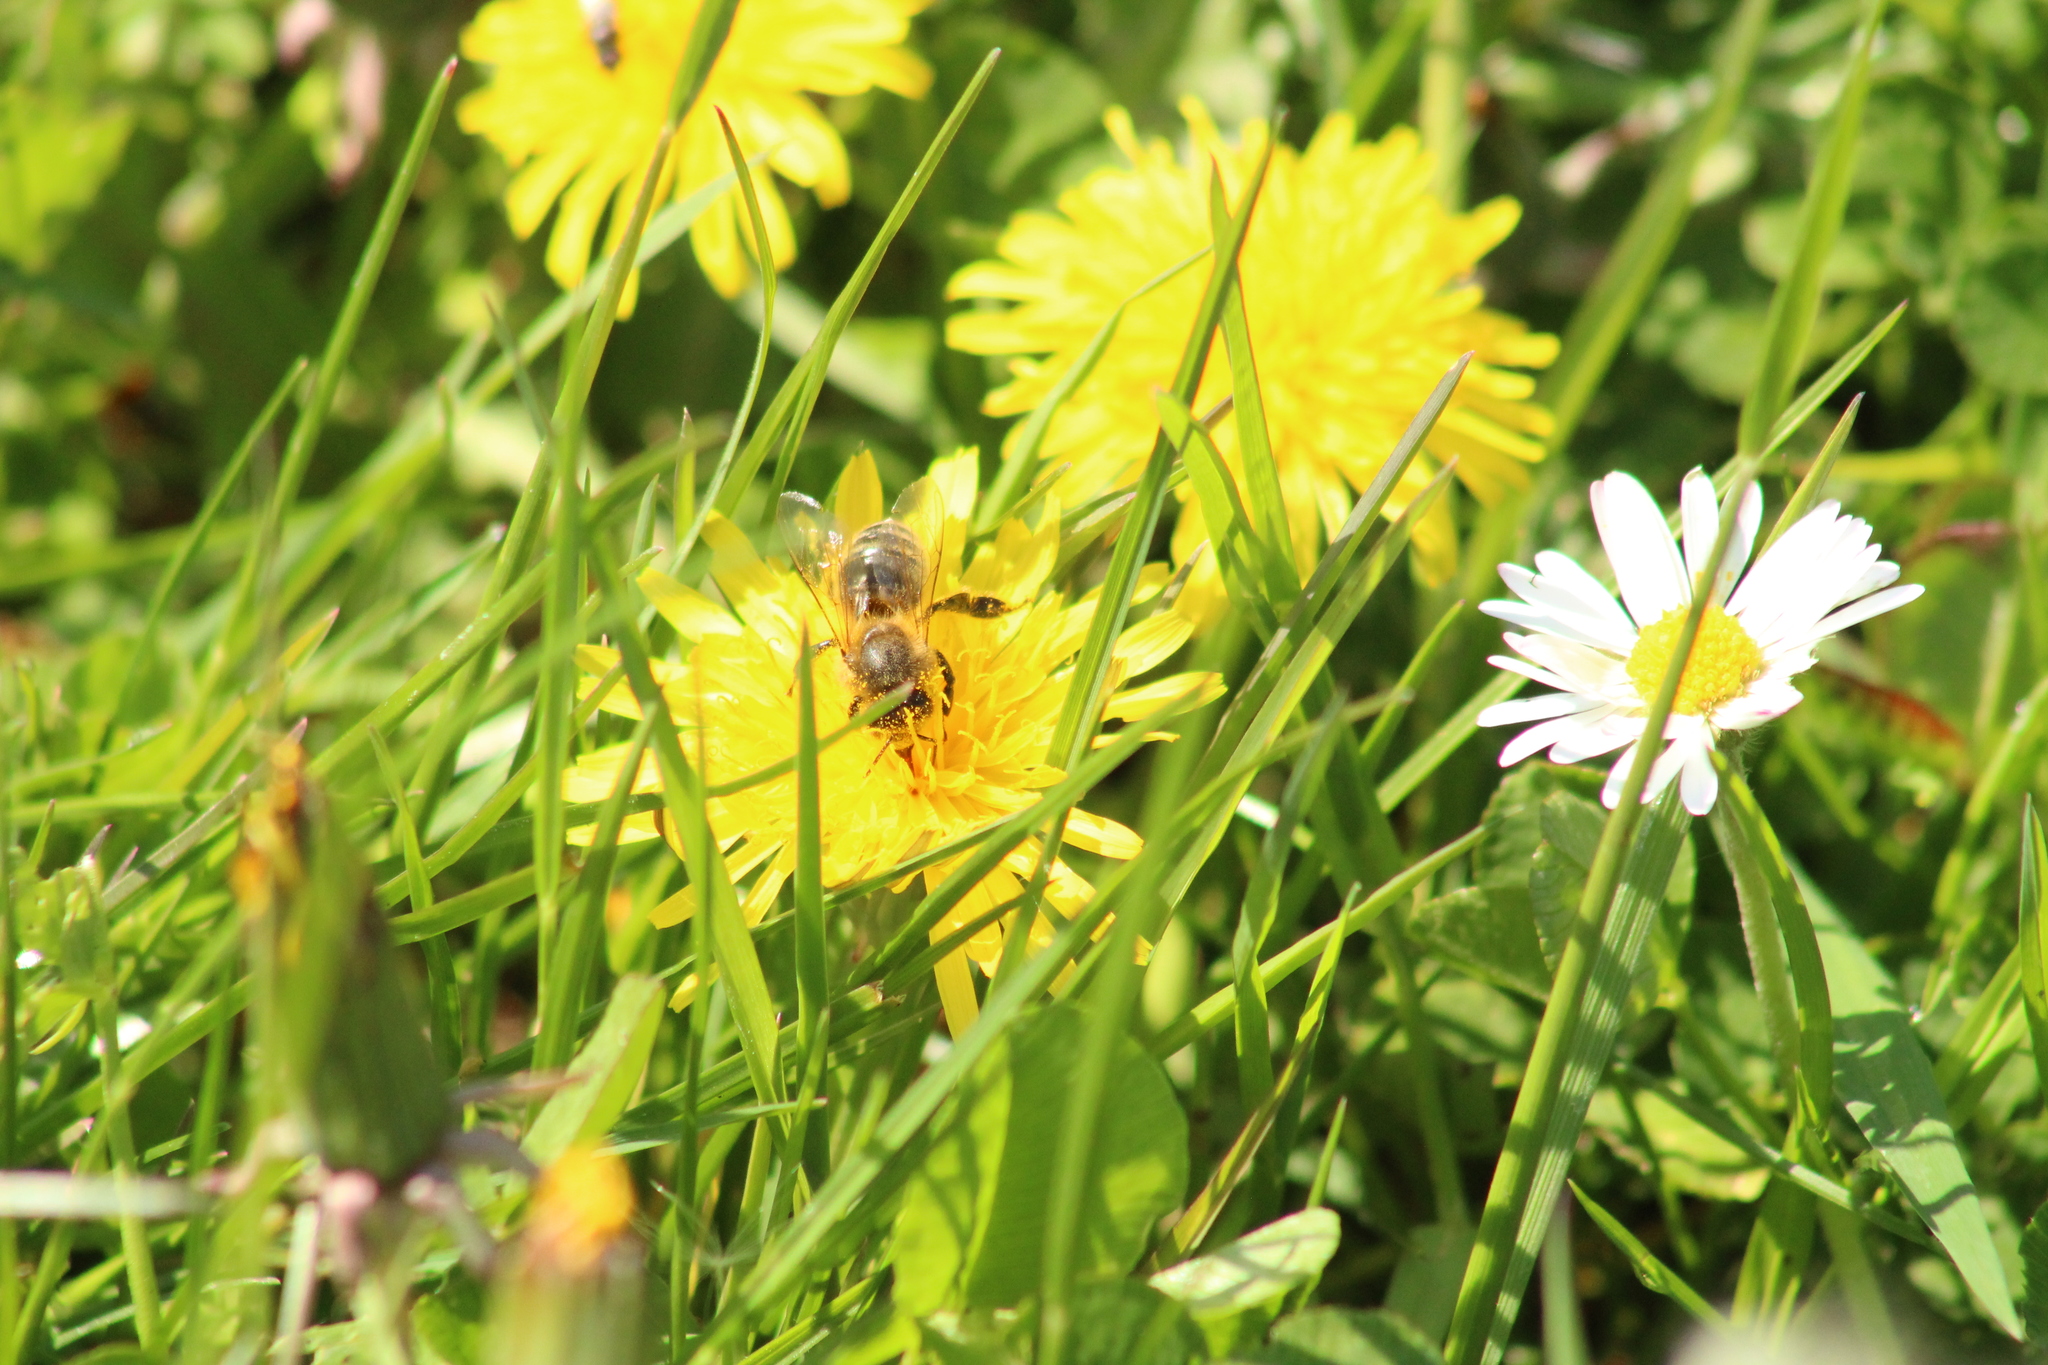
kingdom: Animalia
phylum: Arthropoda
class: Insecta
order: Hymenoptera
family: Apidae
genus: Apis
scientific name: Apis mellifera
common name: Honey bee
